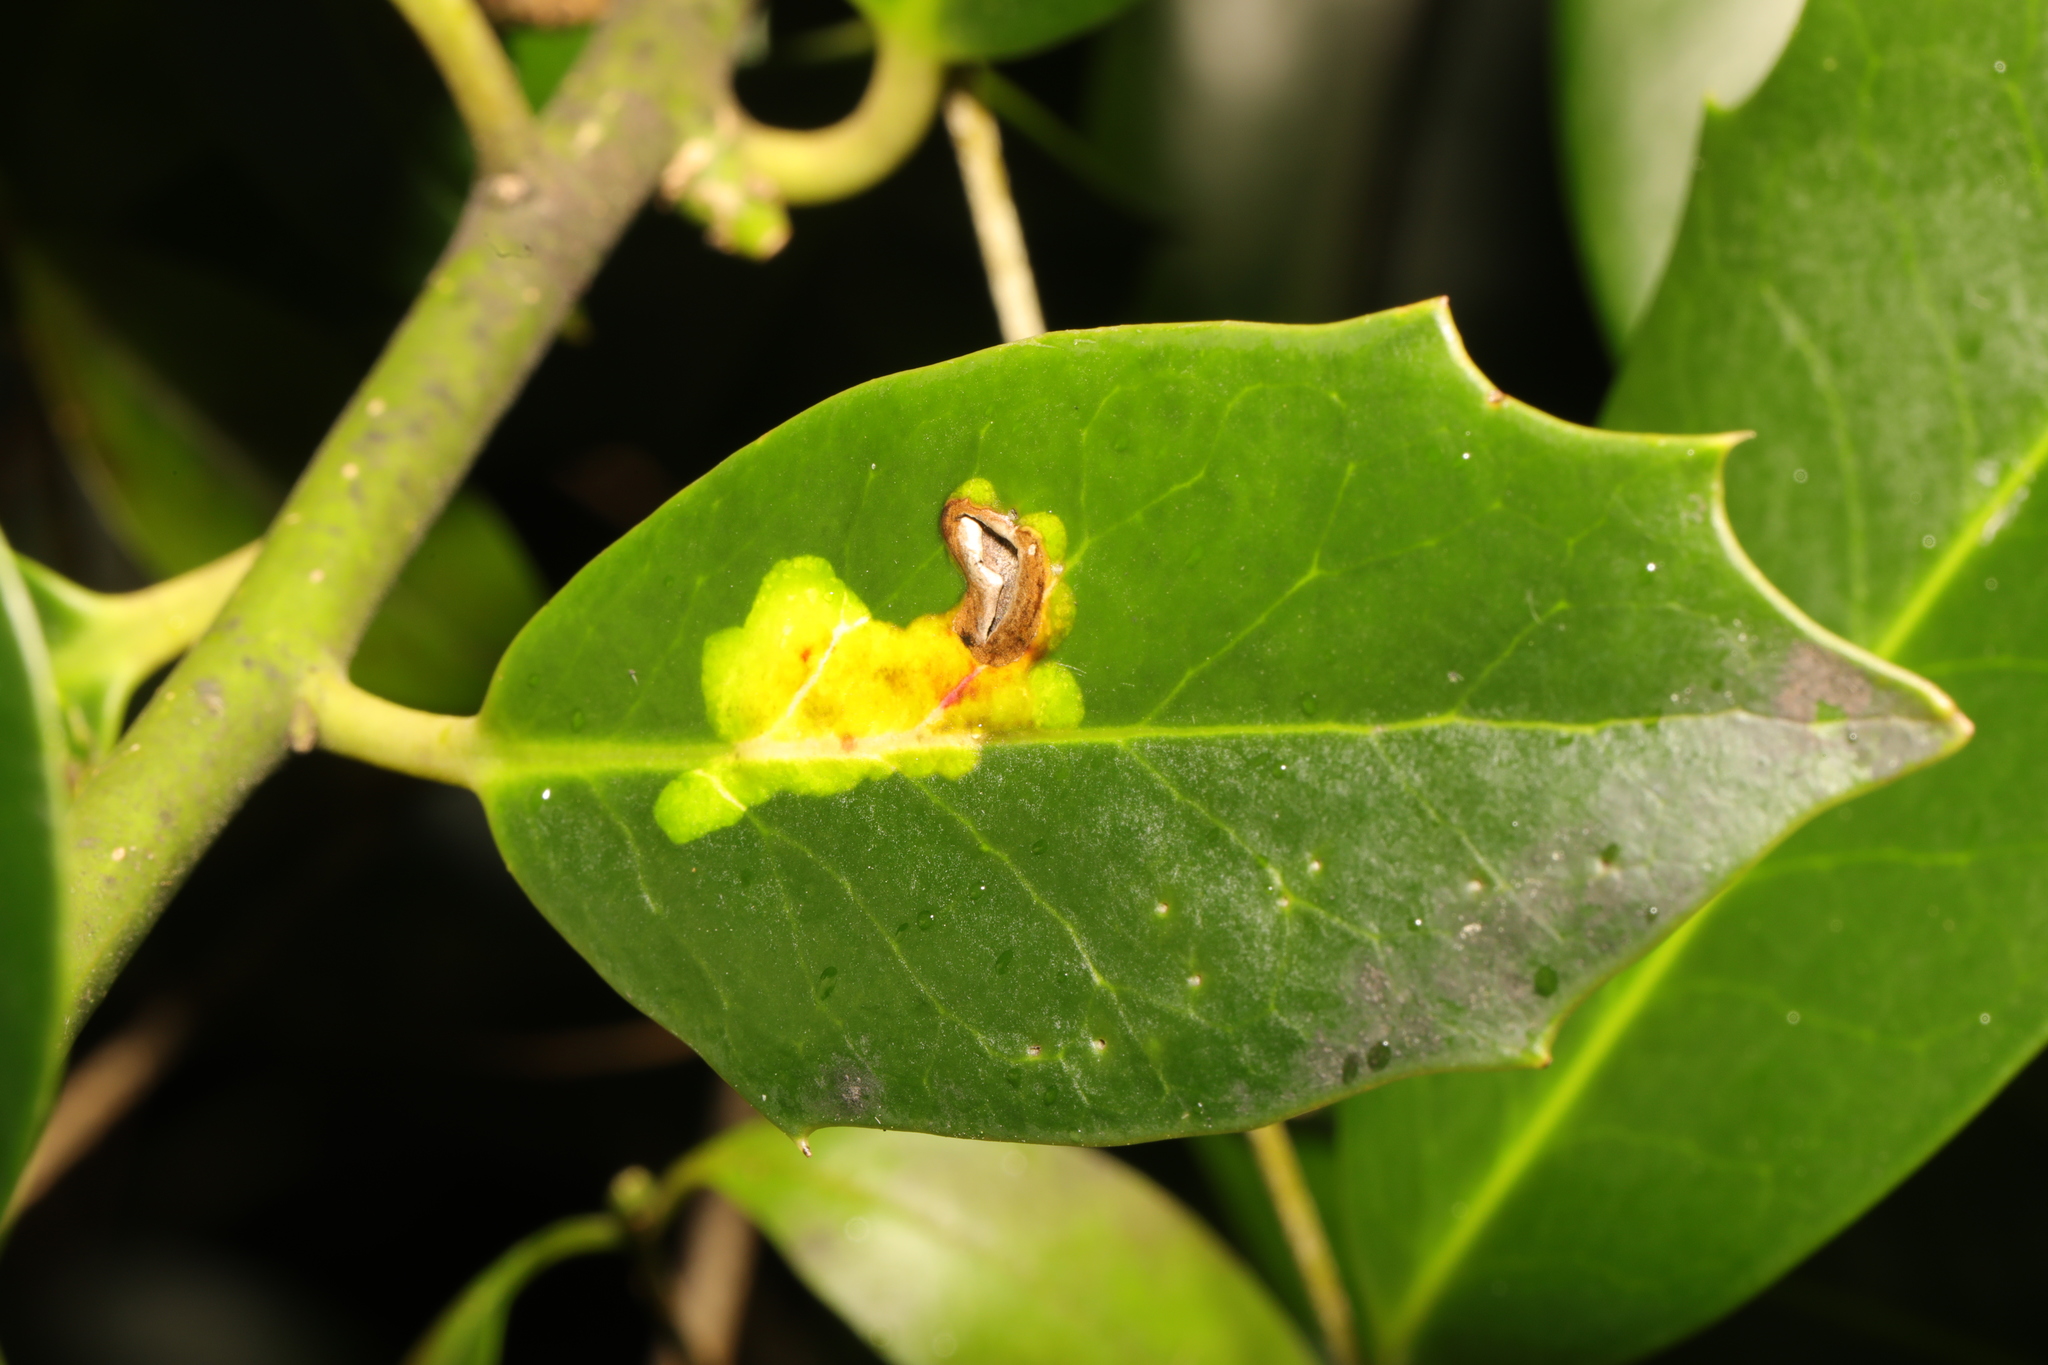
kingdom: Animalia
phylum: Arthropoda
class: Insecta
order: Diptera
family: Agromyzidae
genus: Phytomyza
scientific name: Phytomyza ilicis
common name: Holly leafminer
